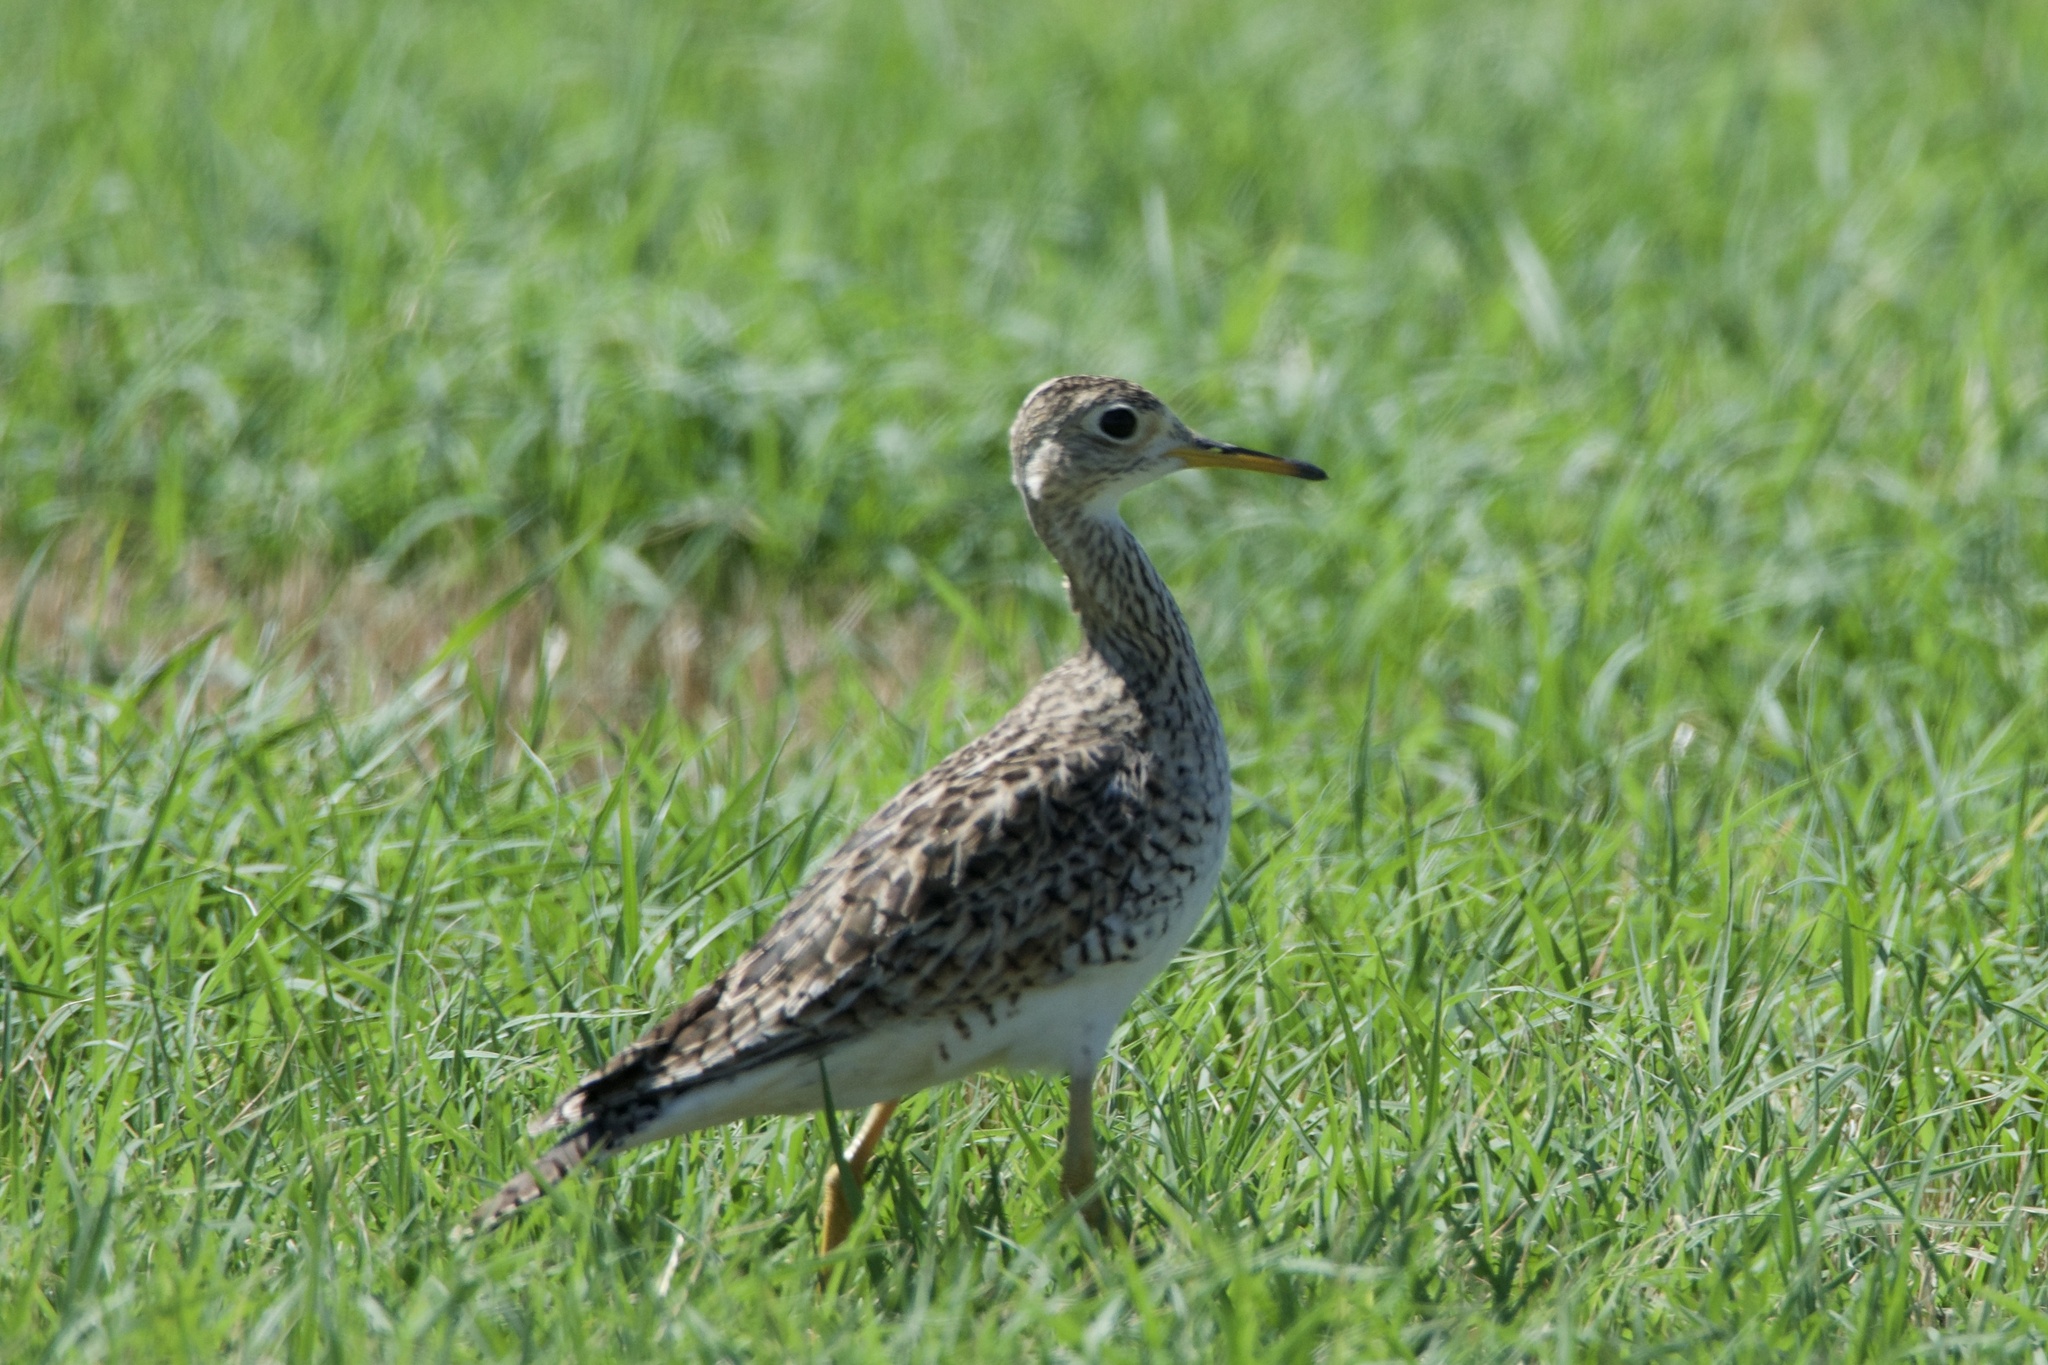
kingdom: Animalia
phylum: Chordata
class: Aves
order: Charadriiformes
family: Scolopacidae
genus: Bartramia
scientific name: Bartramia longicauda
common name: Upland sandpiper
